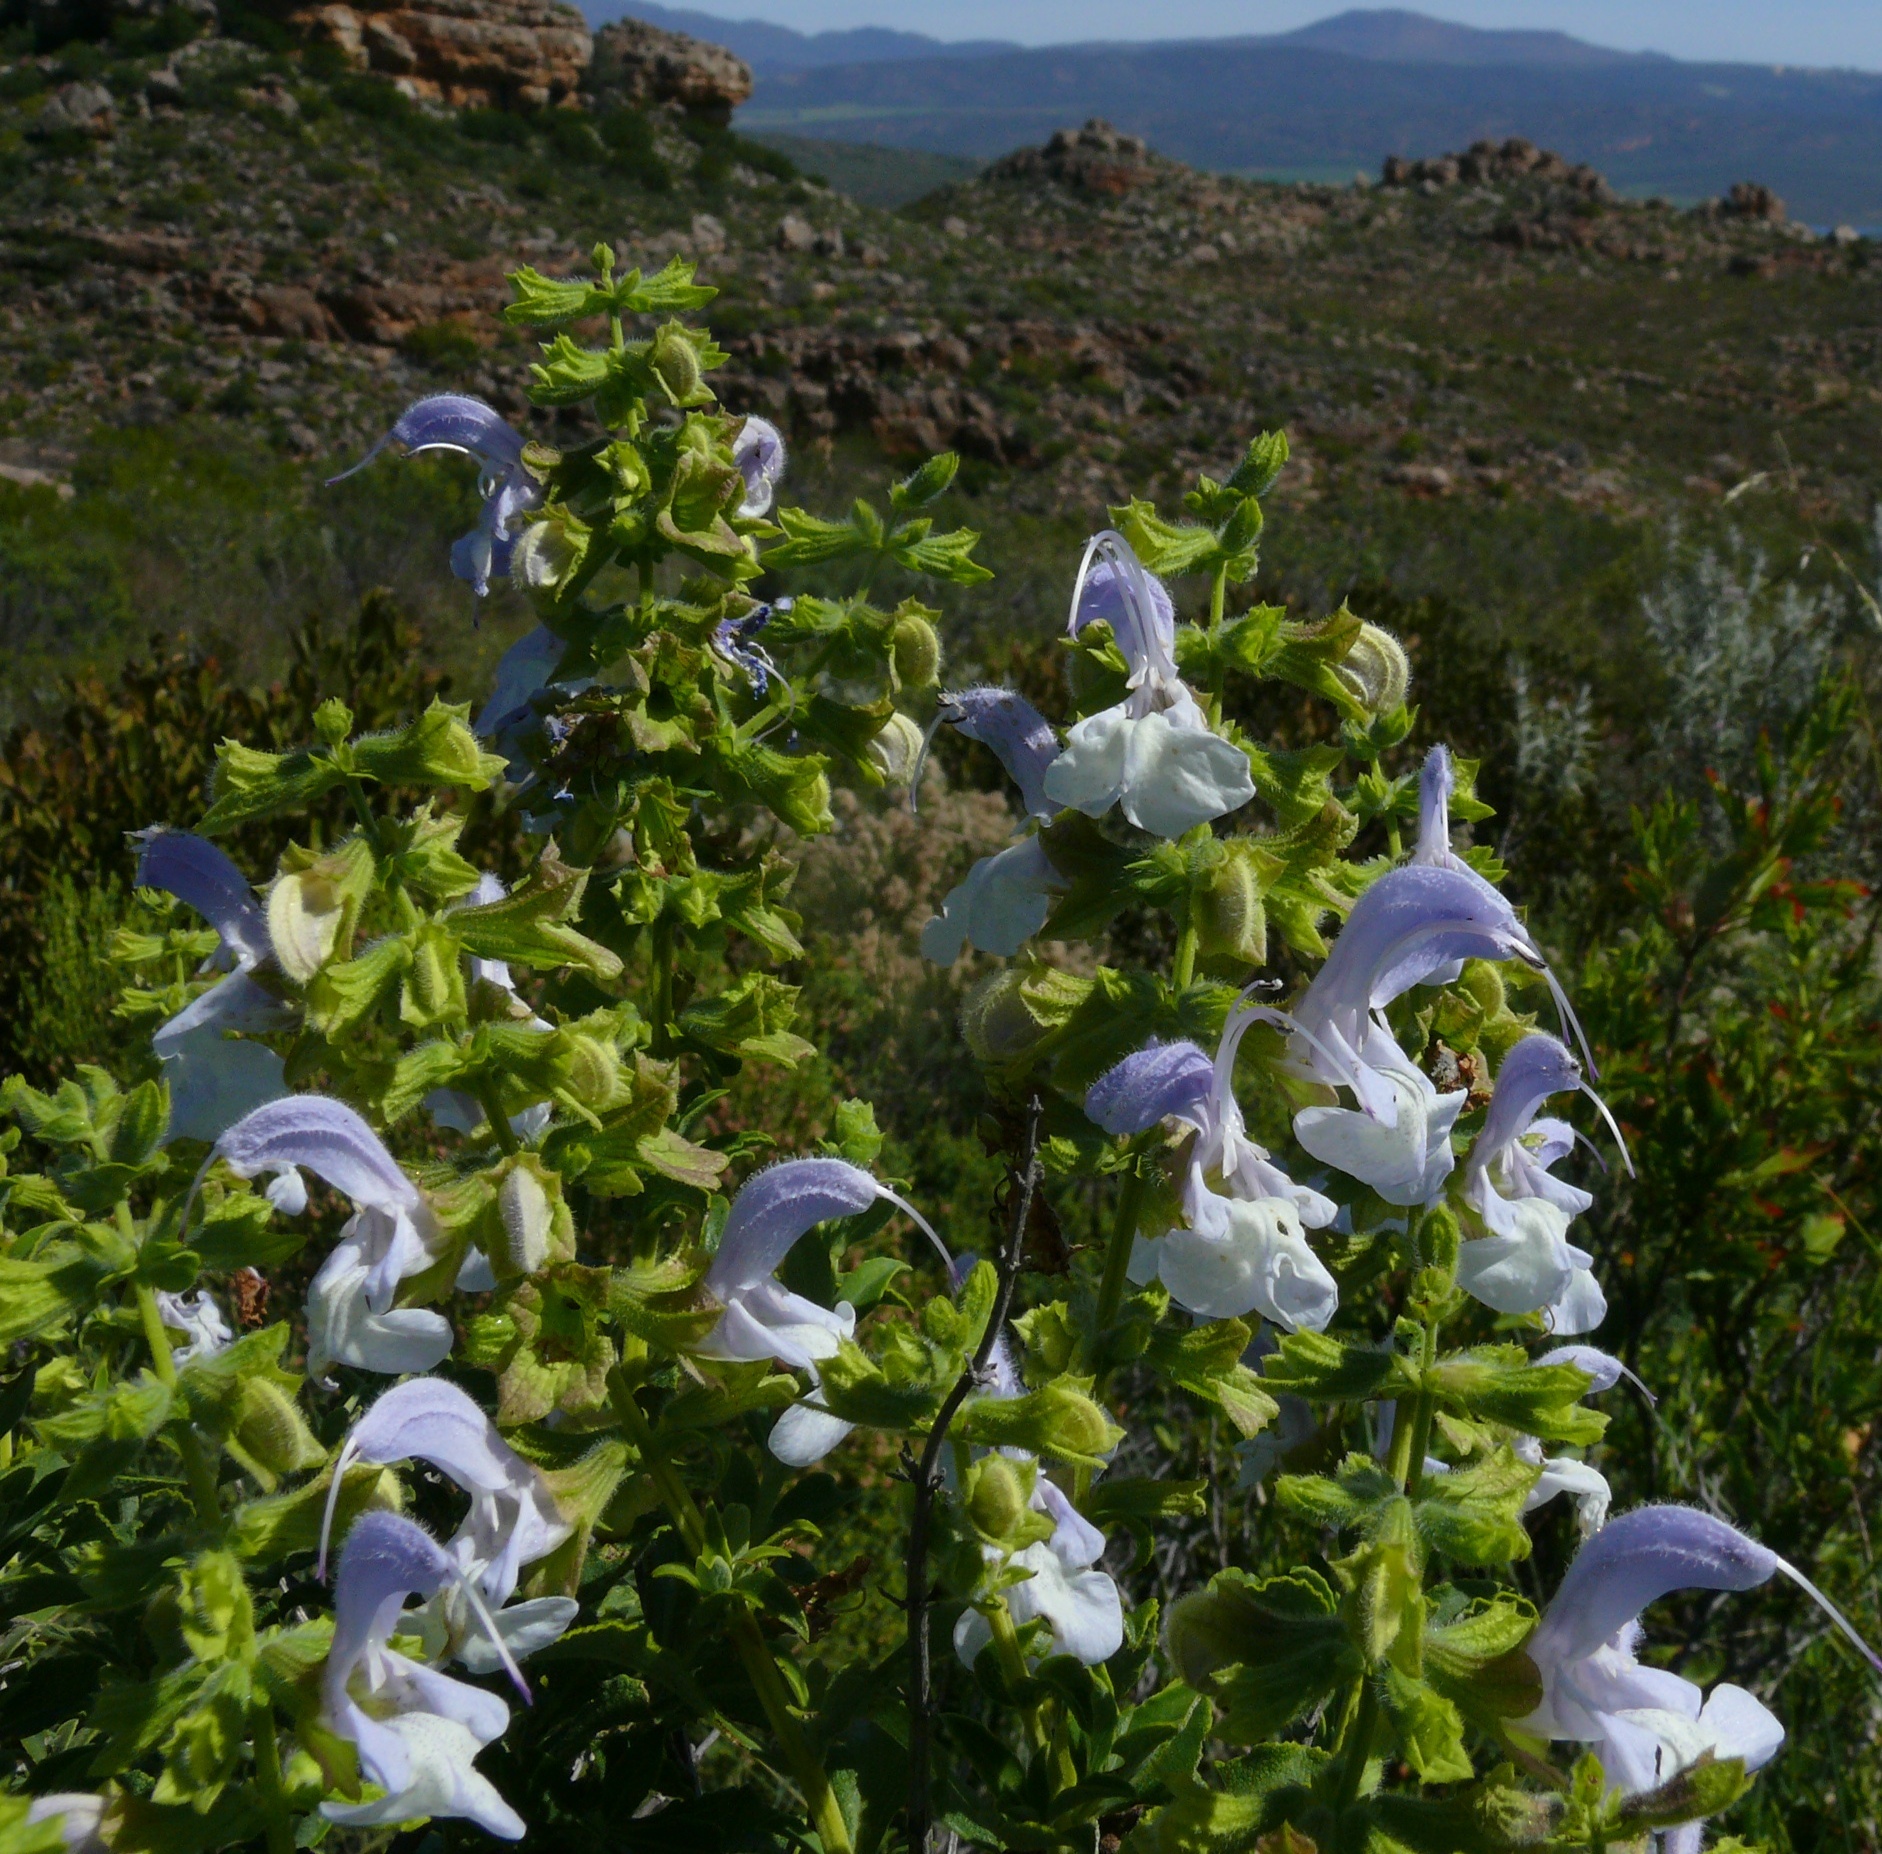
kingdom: Plantae
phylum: Tracheophyta
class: Magnoliopsida
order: Lamiales
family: Lamiaceae
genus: Salvia
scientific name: Salvia africana
